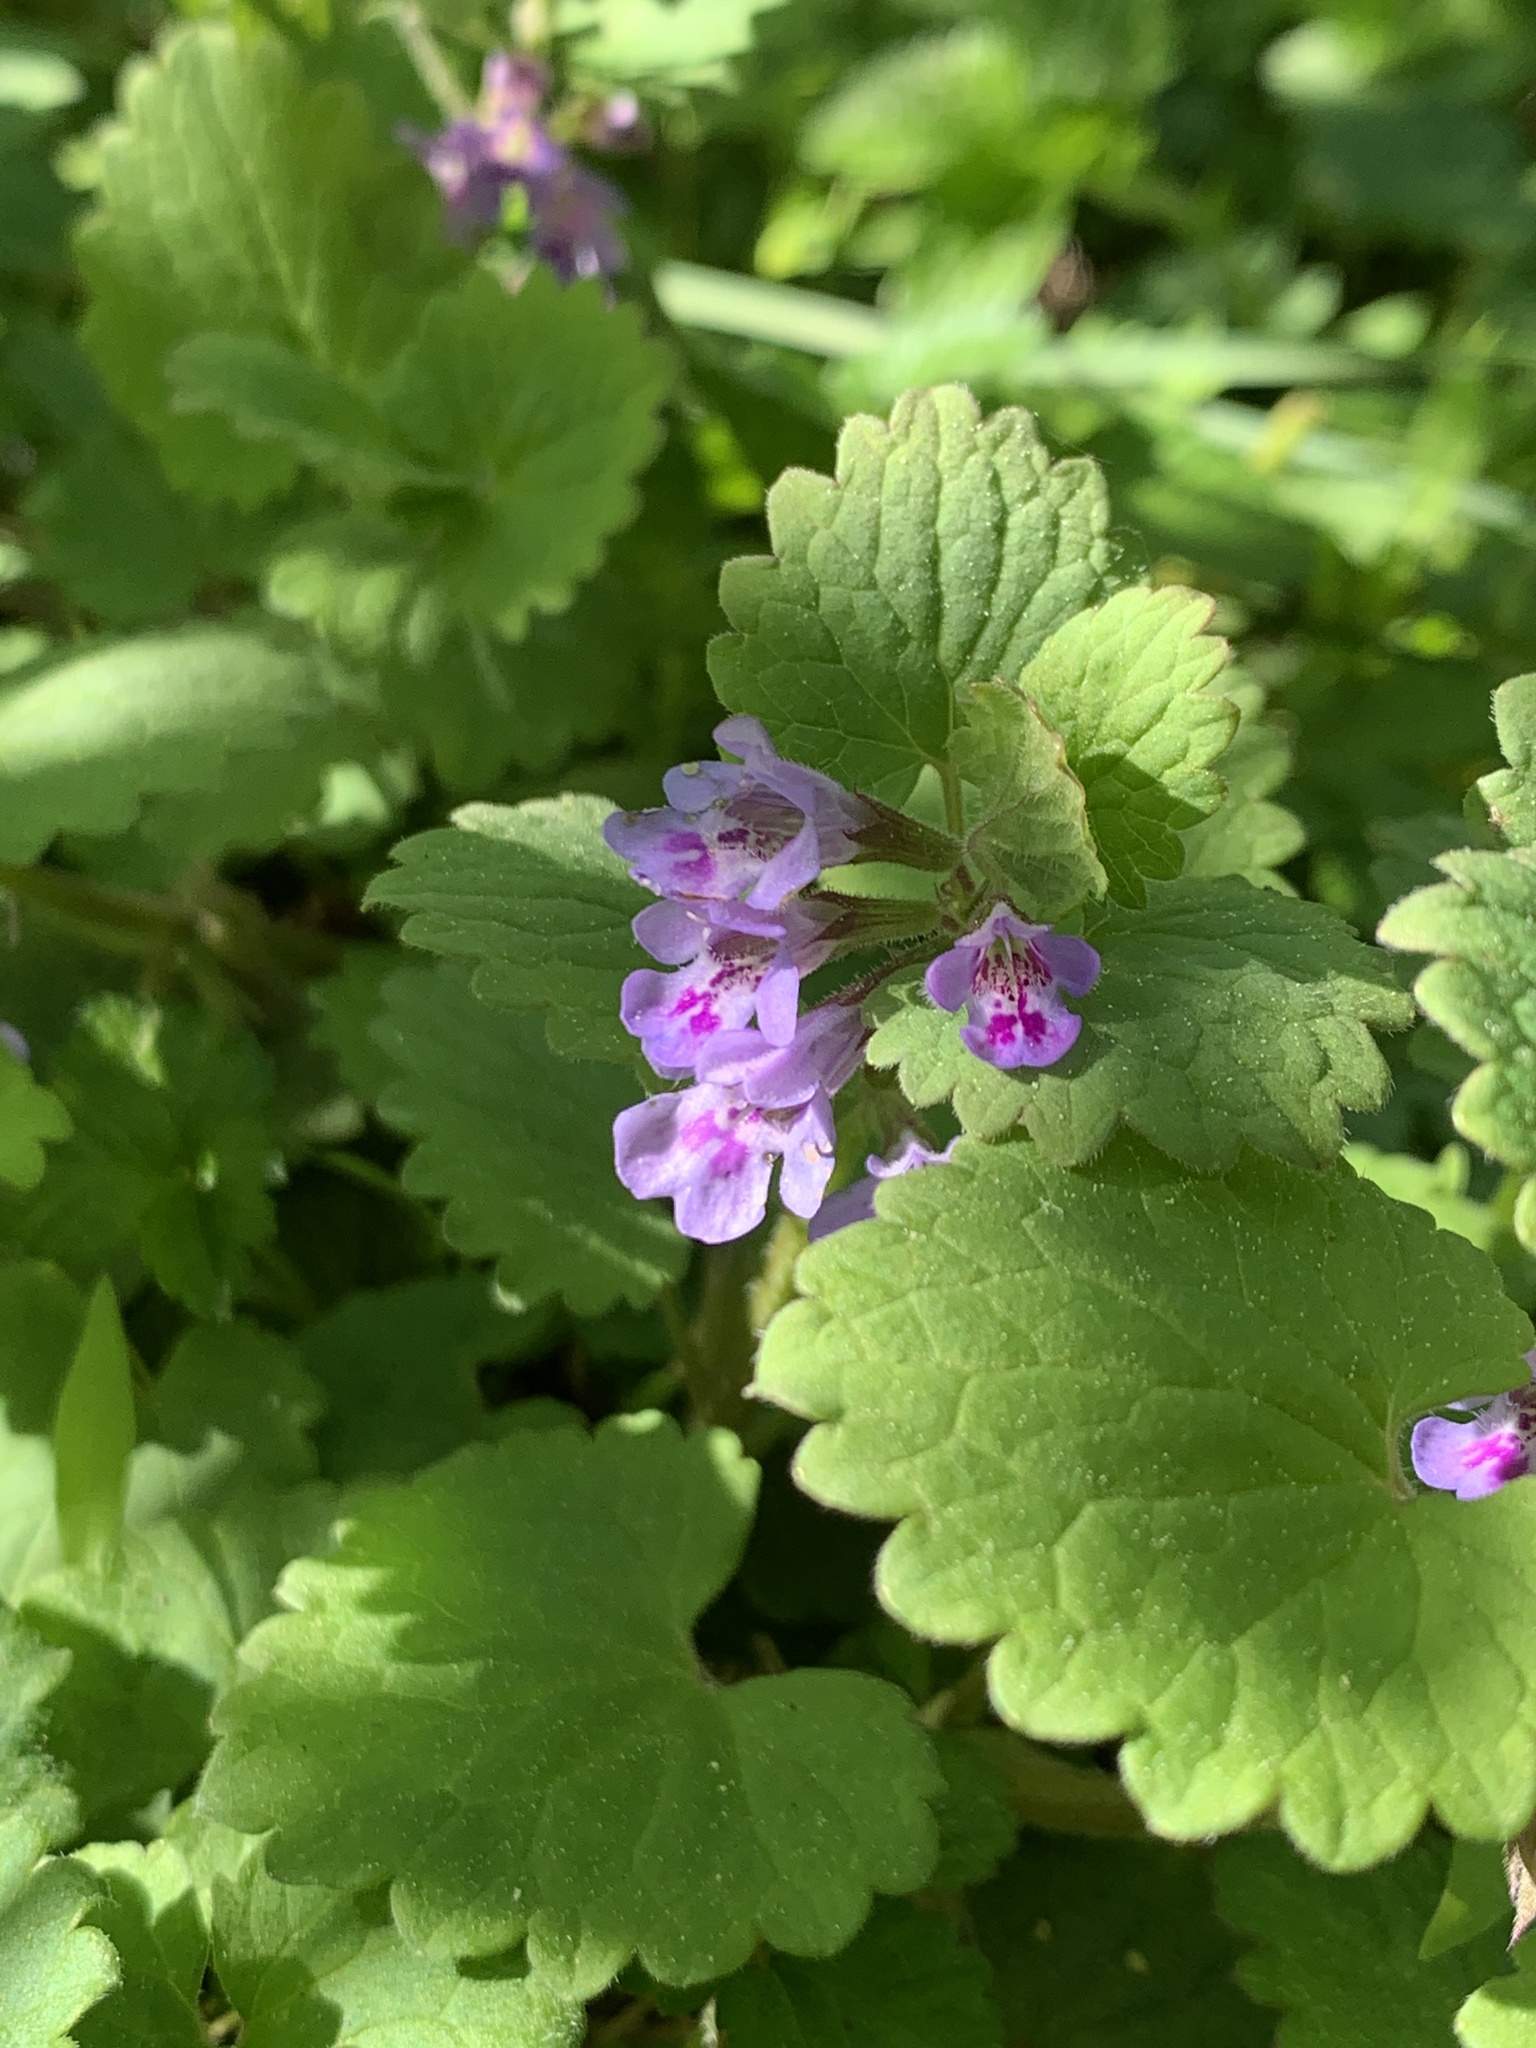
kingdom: Plantae
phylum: Tracheophyta
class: Magnoliopsida
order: Lamiales
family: Lamiaceae
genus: Glechoma
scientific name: Glechoma hederacea
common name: Ground ivy
